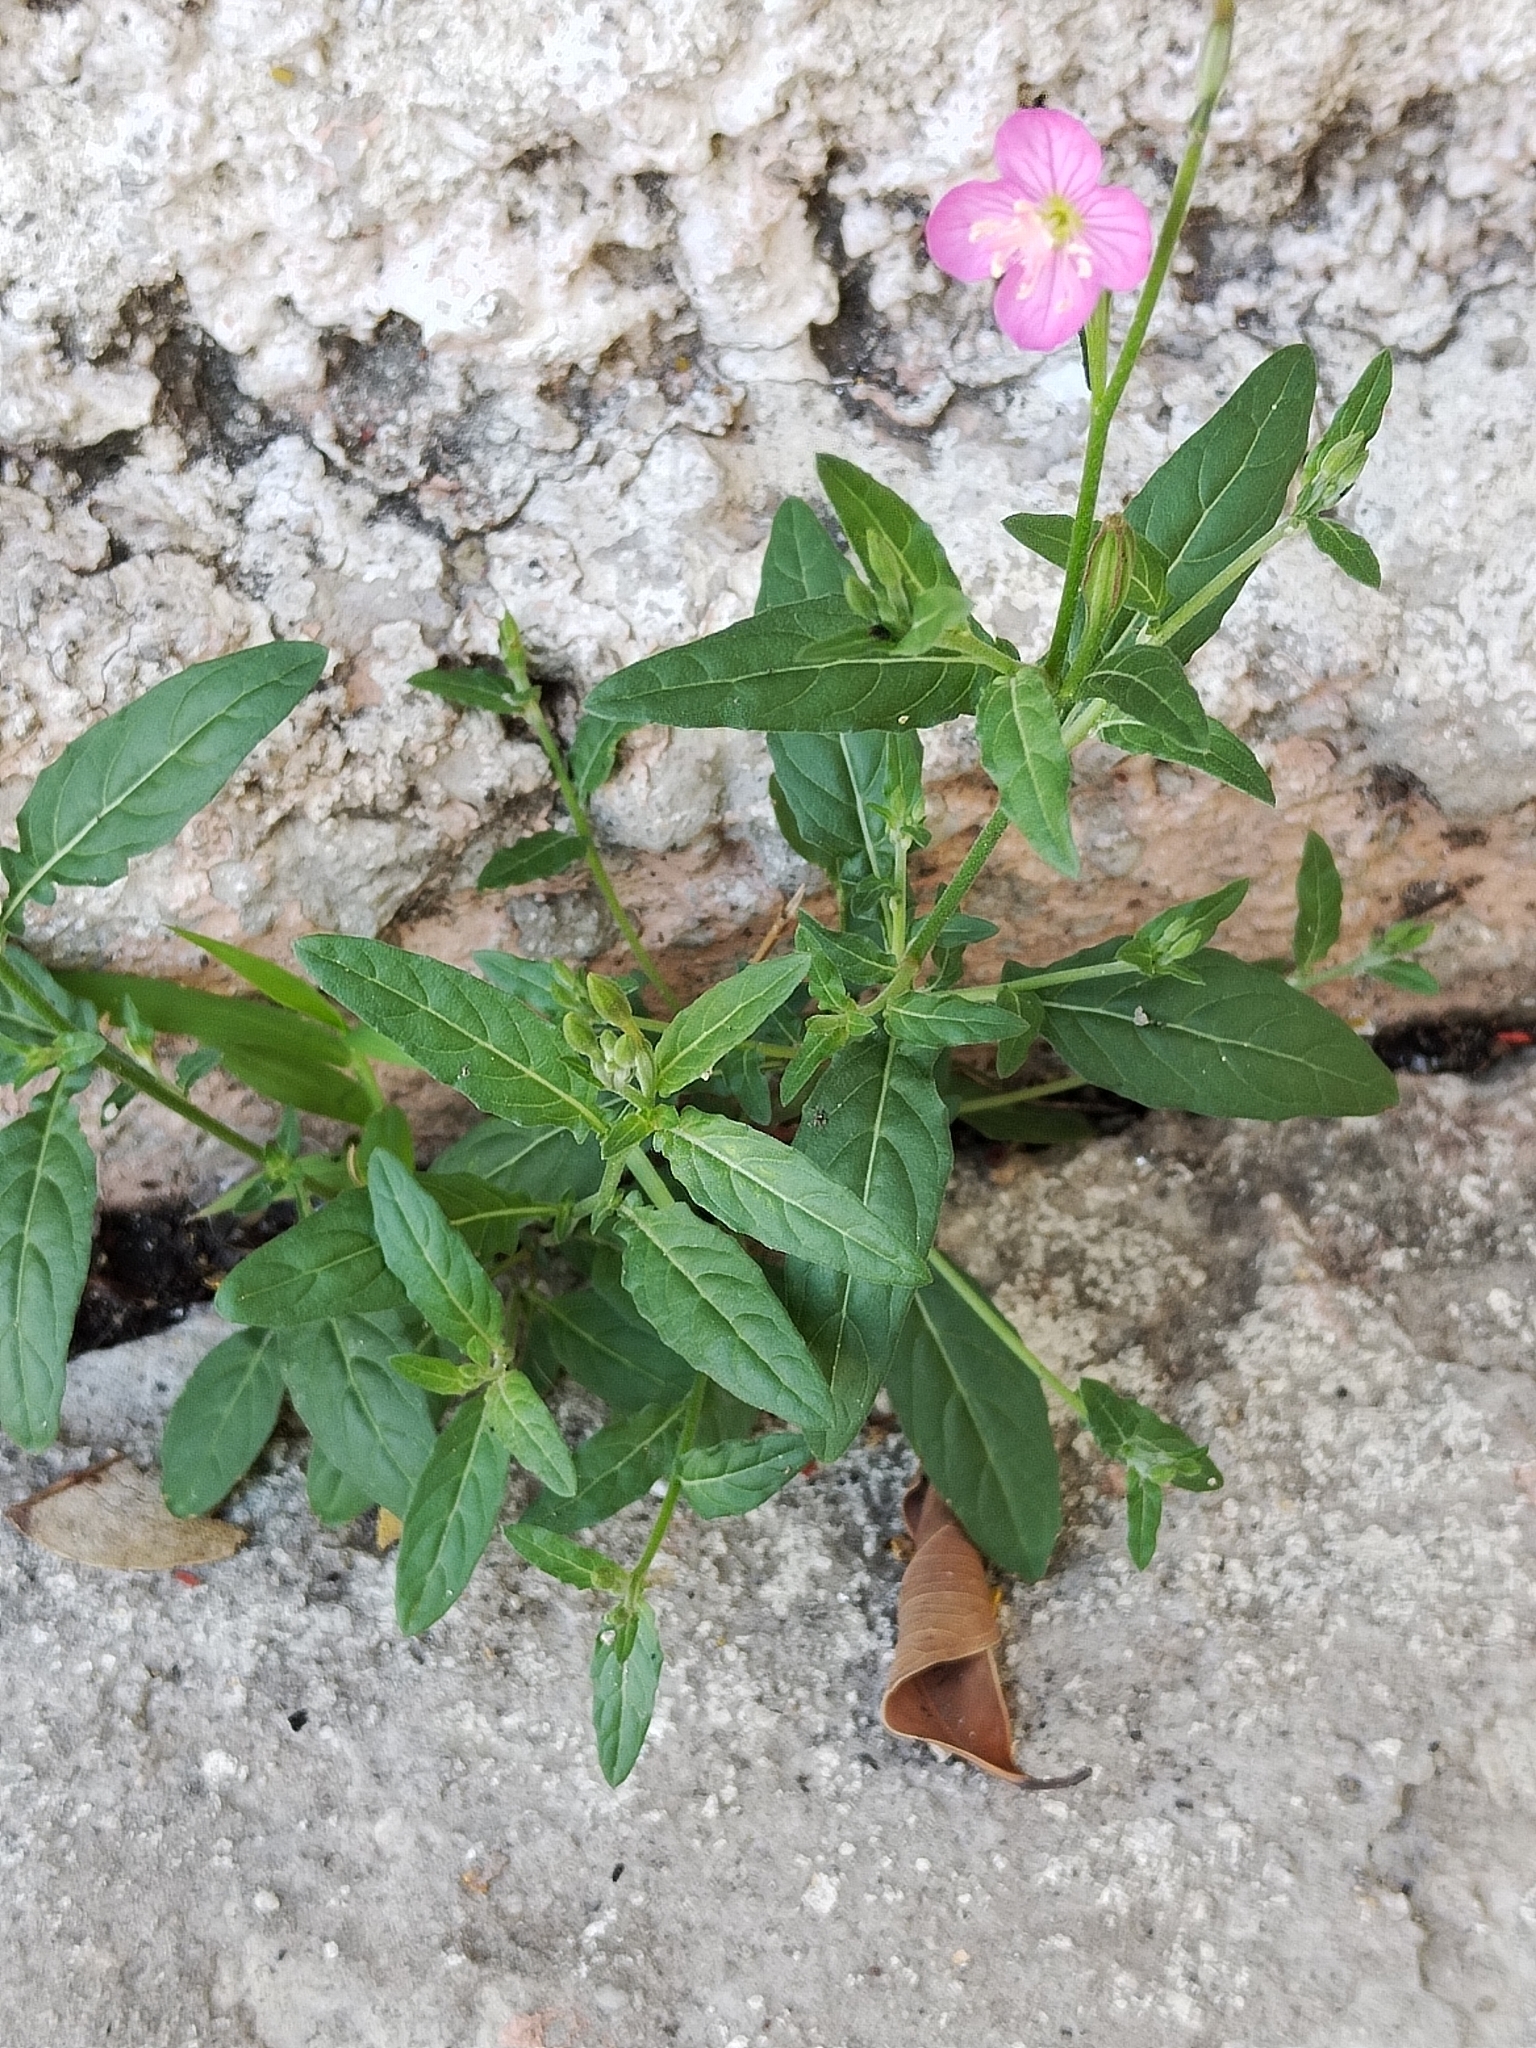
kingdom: Plantae
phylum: Tracheophyta
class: Magnoliopsida
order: Myrtales
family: Onagraceae
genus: Oenothera
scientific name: Oenothera rosea
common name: Rosy evening-primrose
